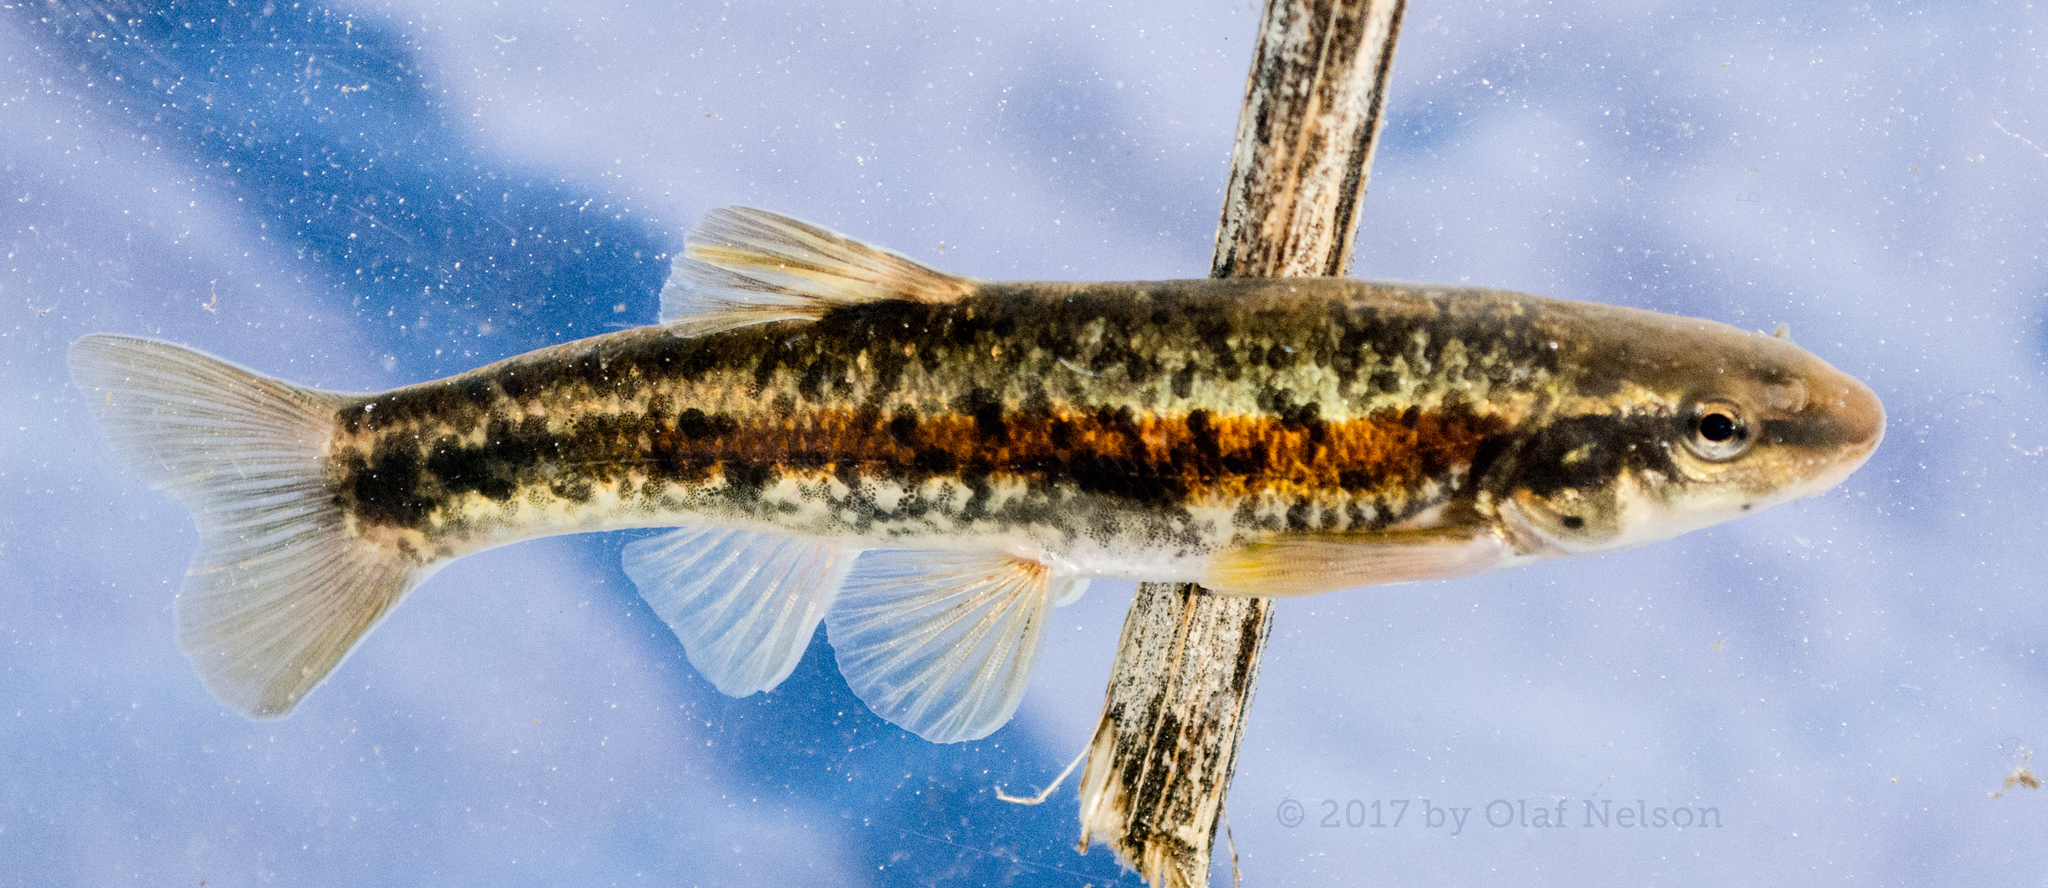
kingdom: Animalia
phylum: Chordata
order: Cypriniformes
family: Cyprinidae
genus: Rhinichthys
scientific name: Rhinichthys obtusus
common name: Western blacknose dace
